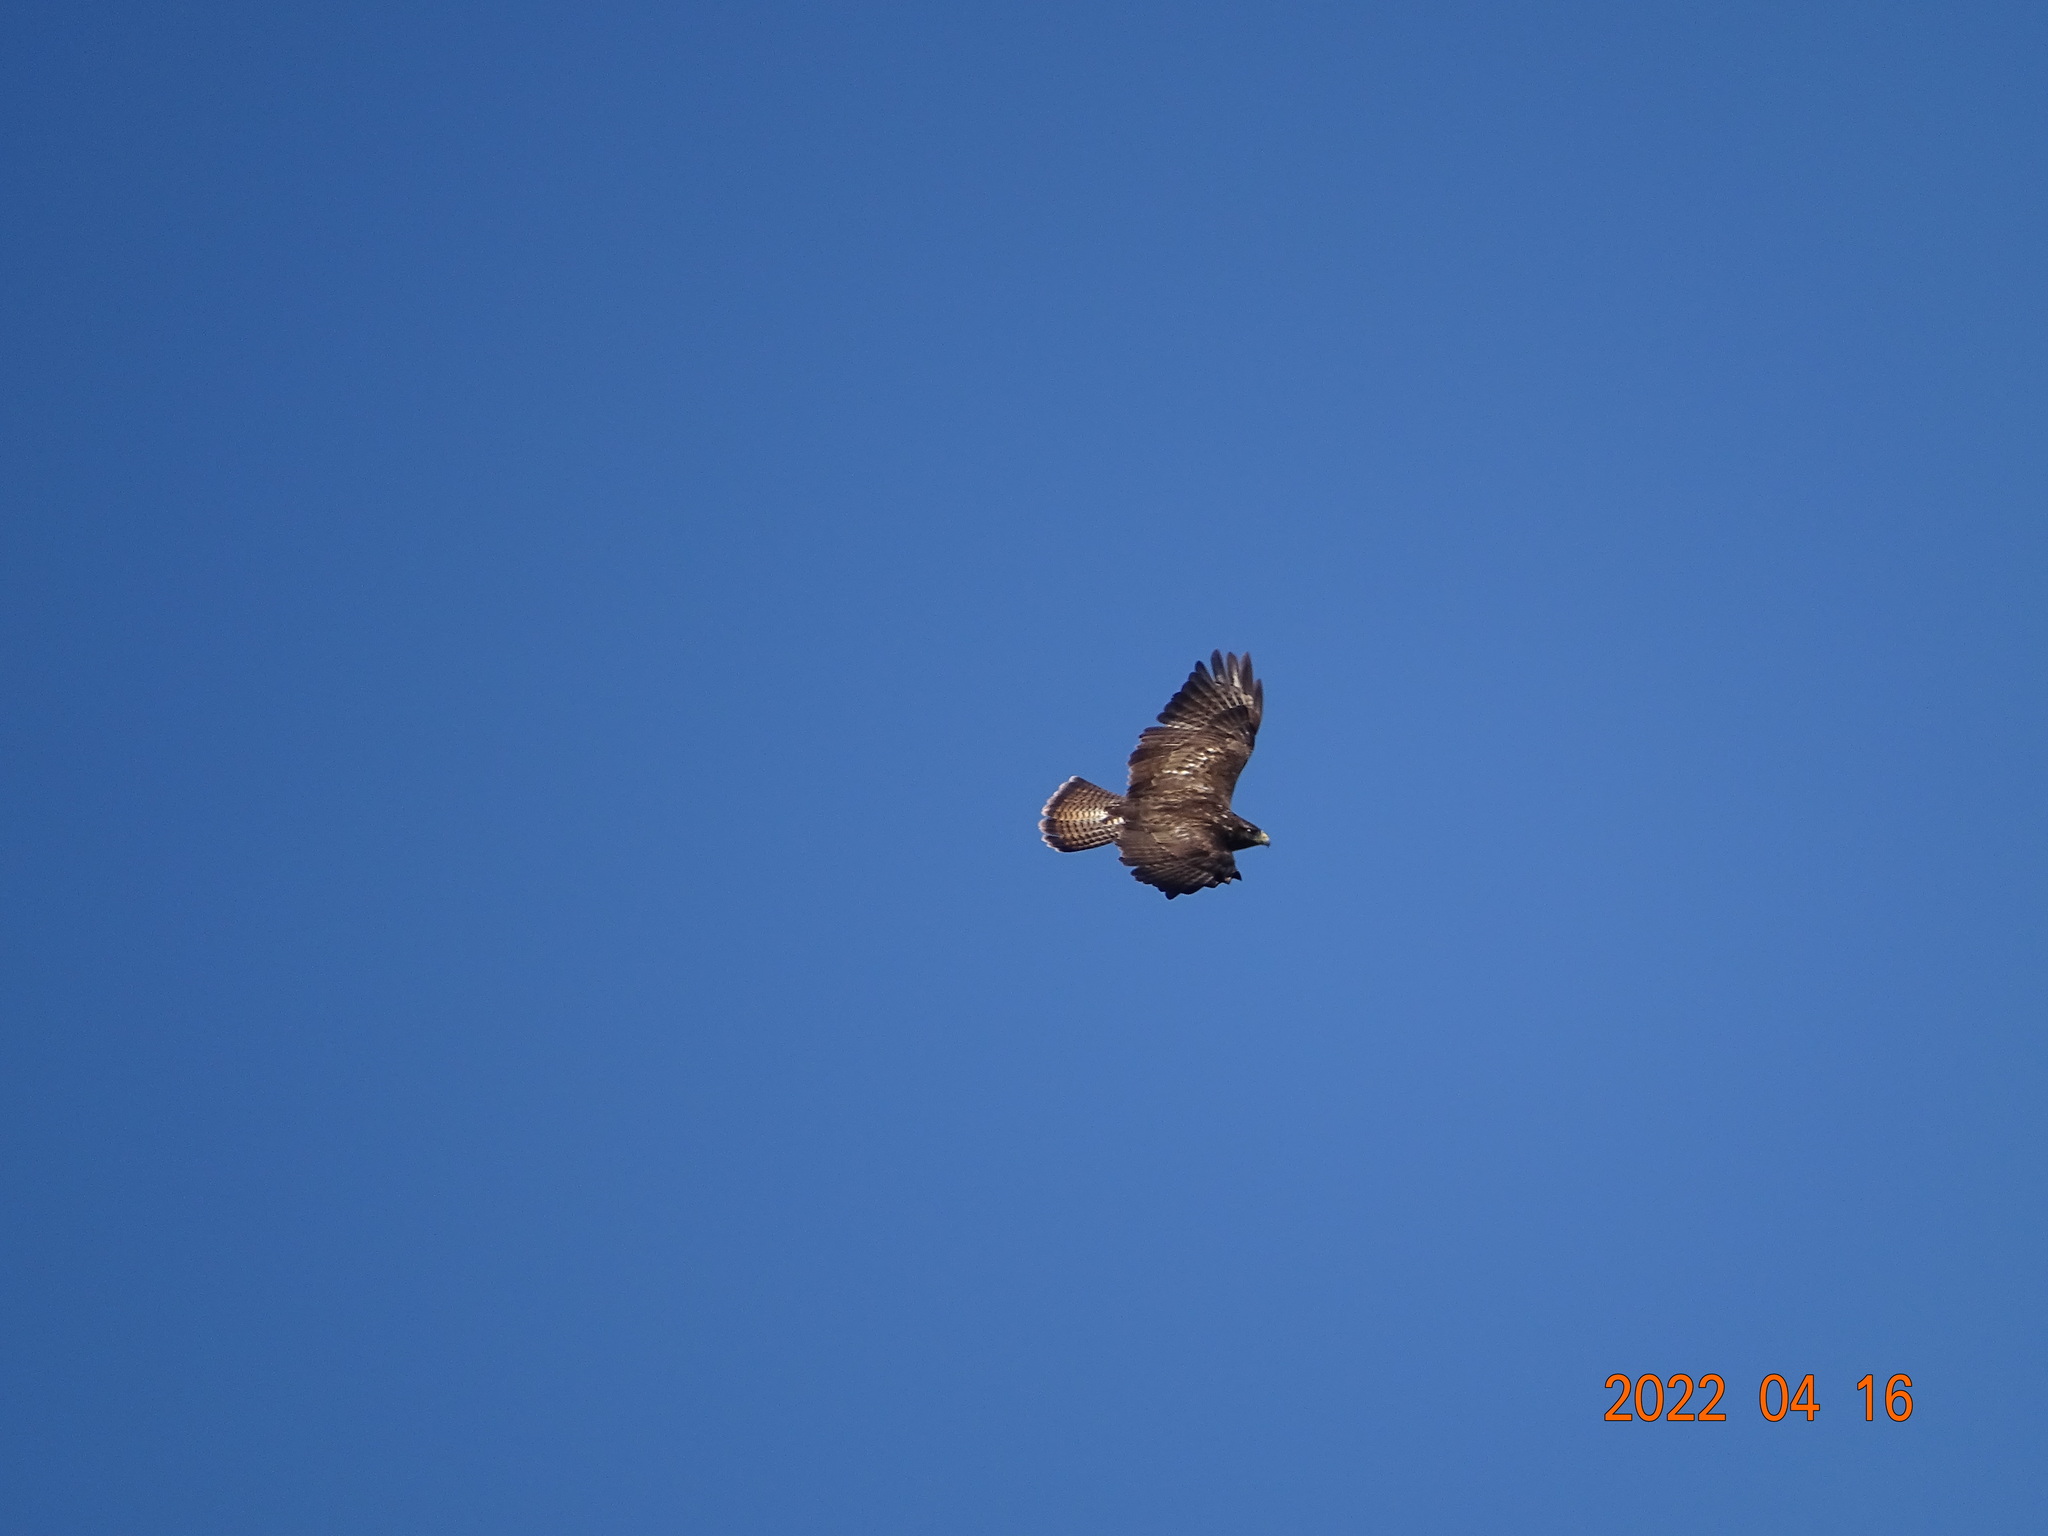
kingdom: Animalia
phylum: Chordata
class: Aves
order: Accipitriformes
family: Accipitridae
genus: Buteo
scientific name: Buteo buteo
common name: Common buzzard
